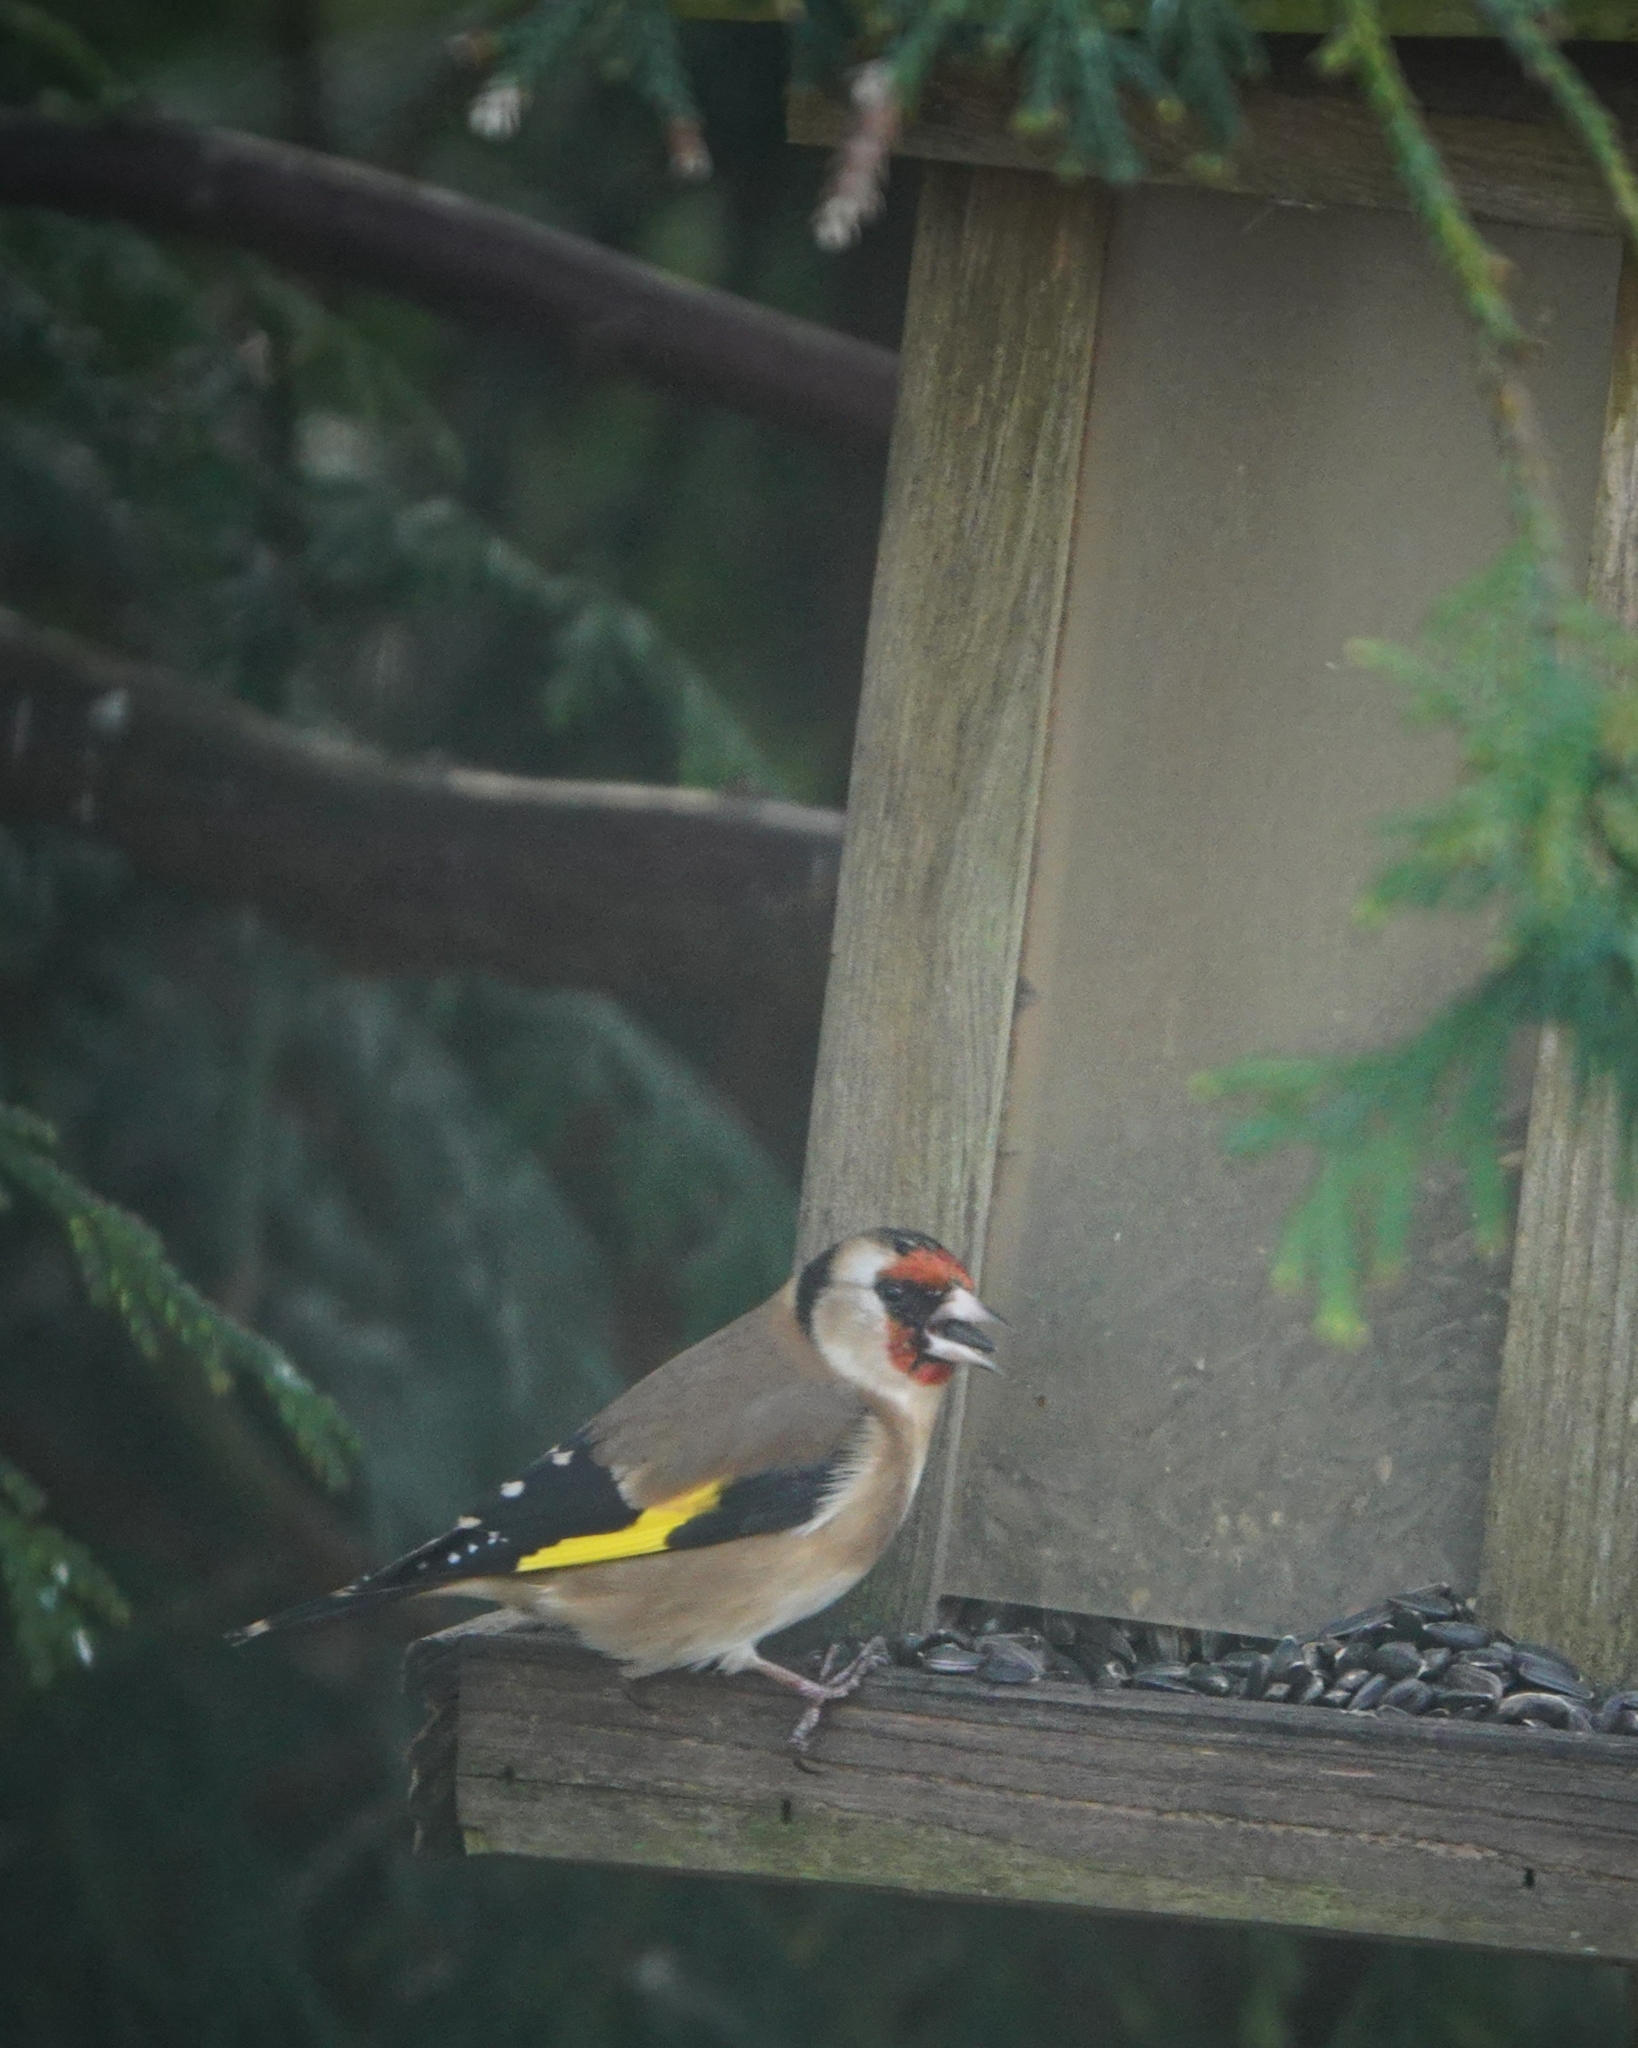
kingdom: Animalia
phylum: Chordata
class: Aves
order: Passeriformes
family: Fringillidae
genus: Carduelis
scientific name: Carduelis carduelis
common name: European goldfinch
